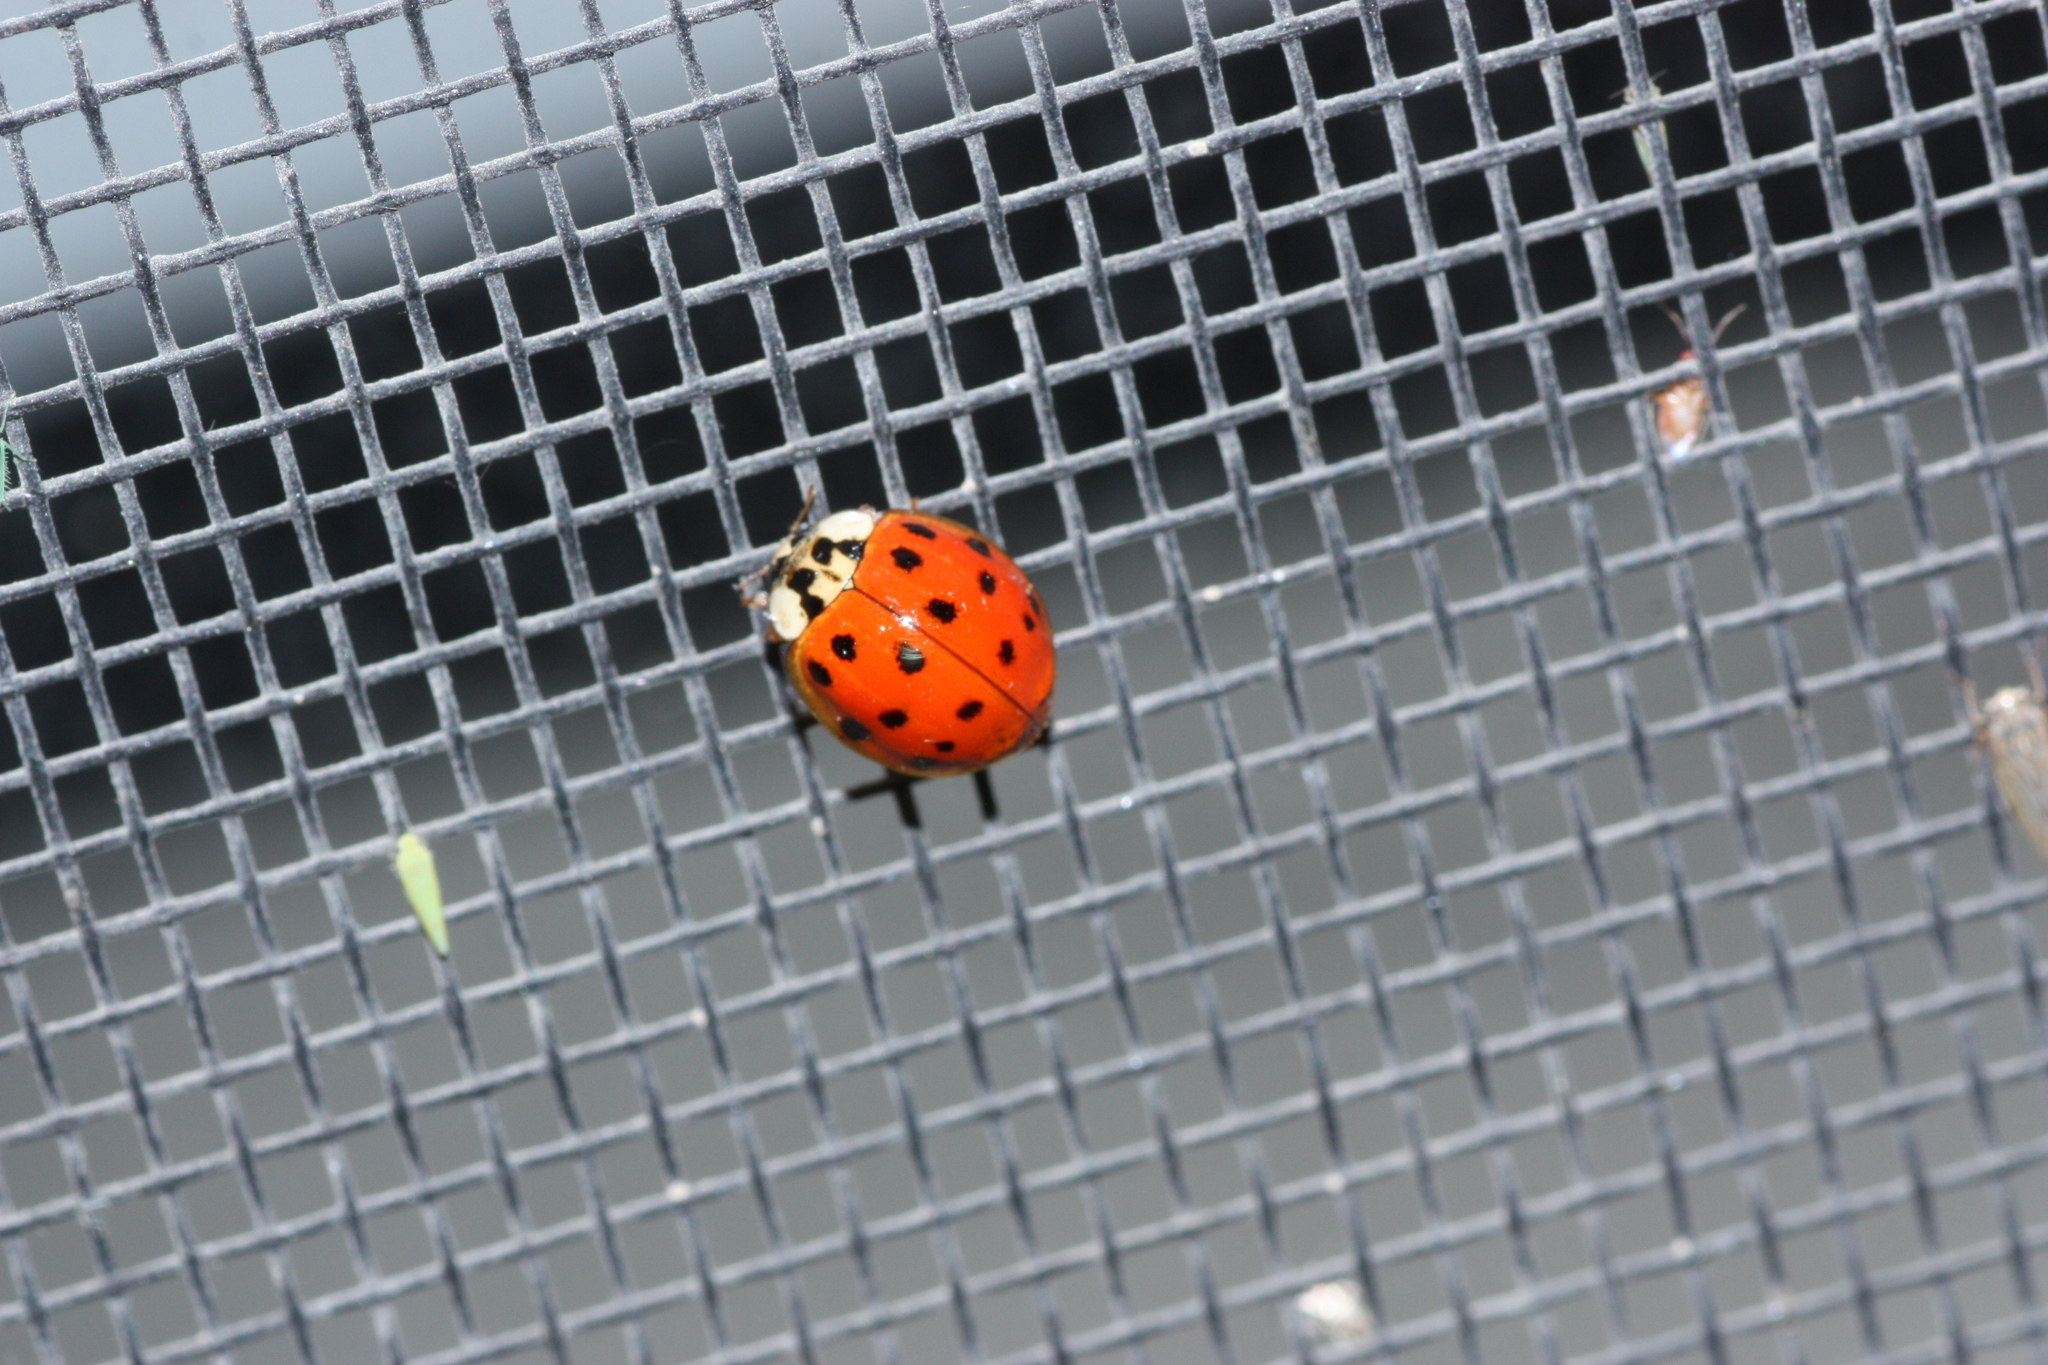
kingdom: Animalia
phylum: Arthropoda
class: Insecta
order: Coleoptera
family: Coccinellidae
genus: Harmonia
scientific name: Harmonia axyridis
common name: Harlequin ladybird
